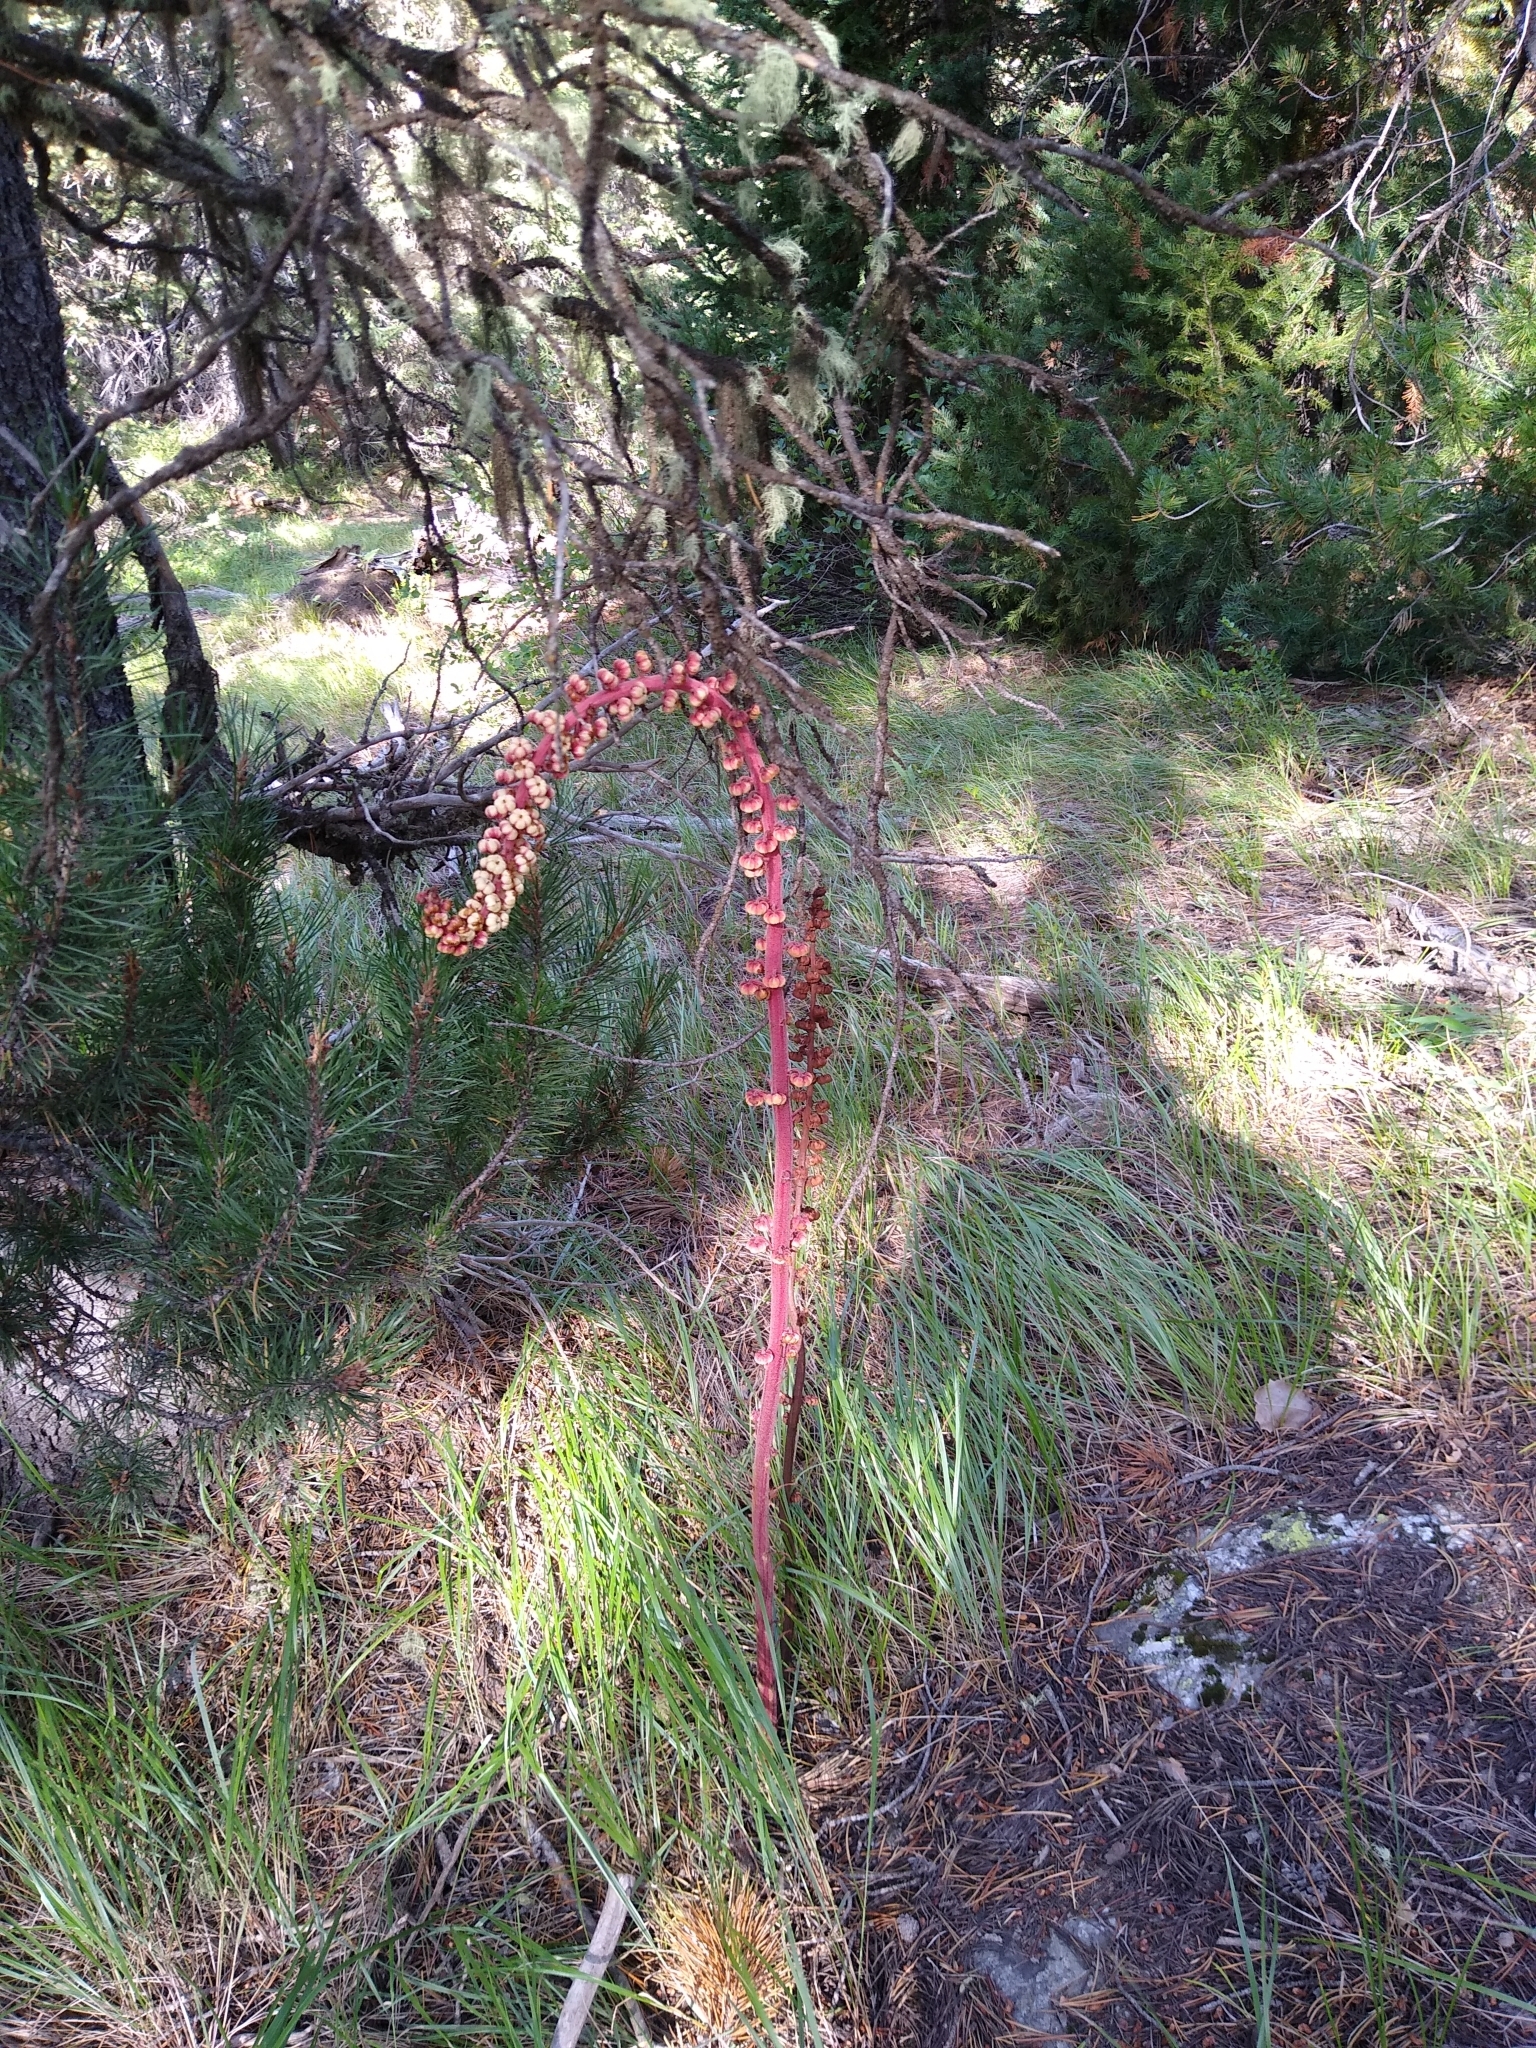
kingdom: Plantae
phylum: Tracheophyta
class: Magnoliopsida
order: Ericales
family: Ericaceae
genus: Pterospora
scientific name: Pterospora andromedea
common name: Giant bird's-nest
